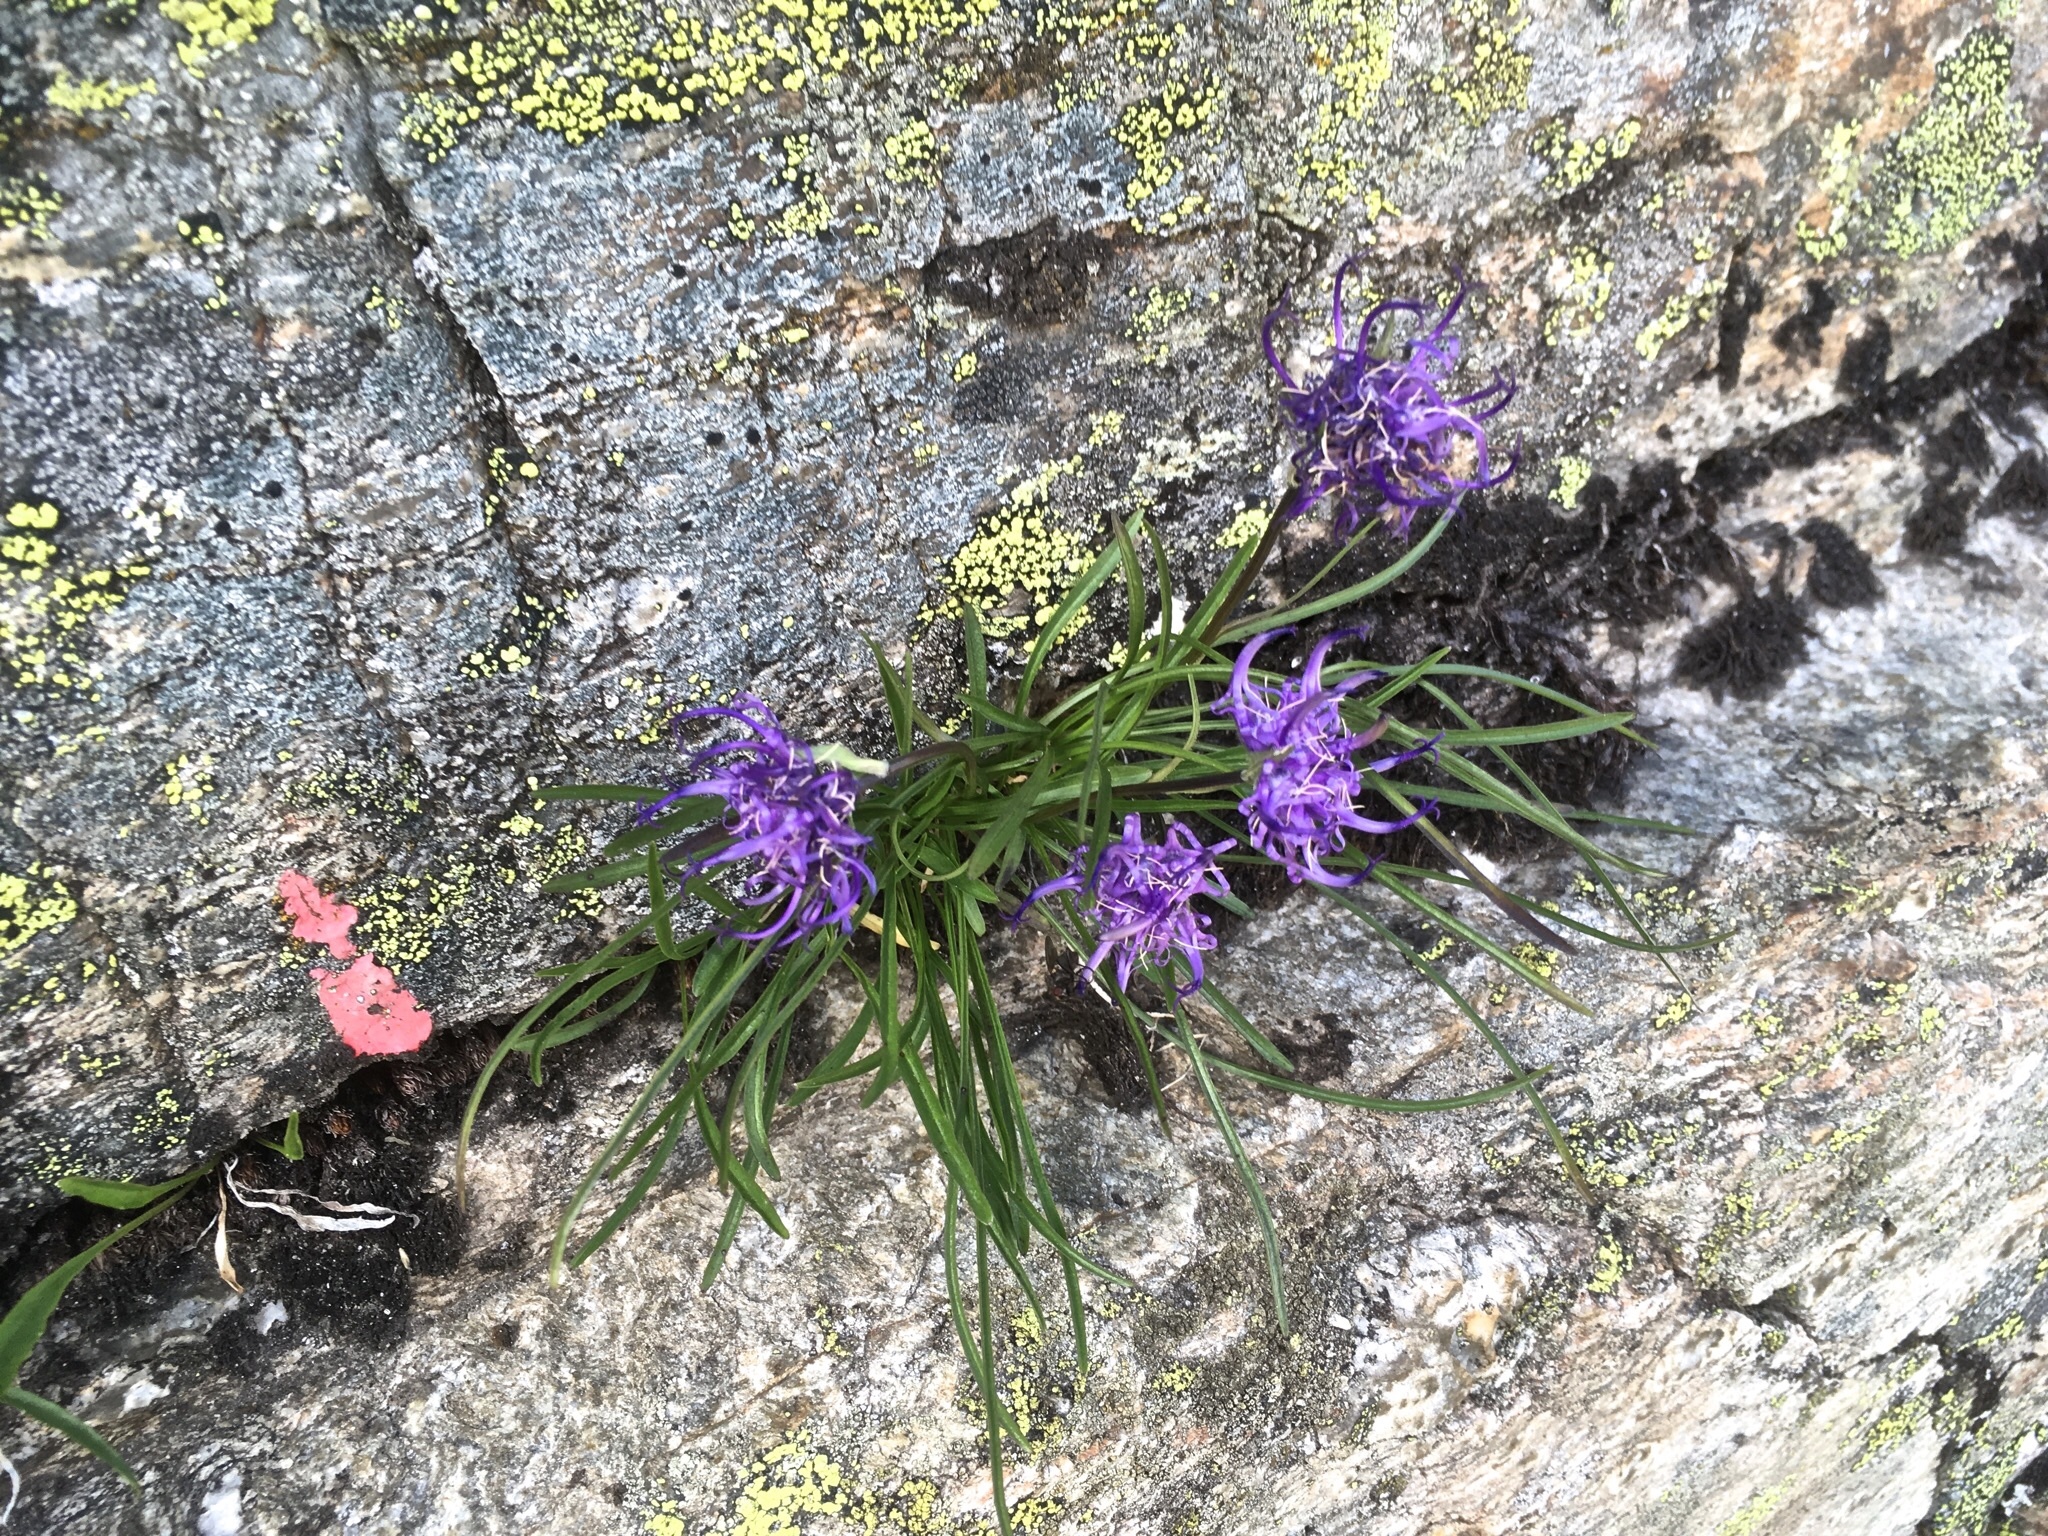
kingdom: Plantae
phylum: Tracheophyta
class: Magnoliopsida
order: Asterales
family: Campanulaceae
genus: Phyteuma
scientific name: Phyteuma hemisphaericum
